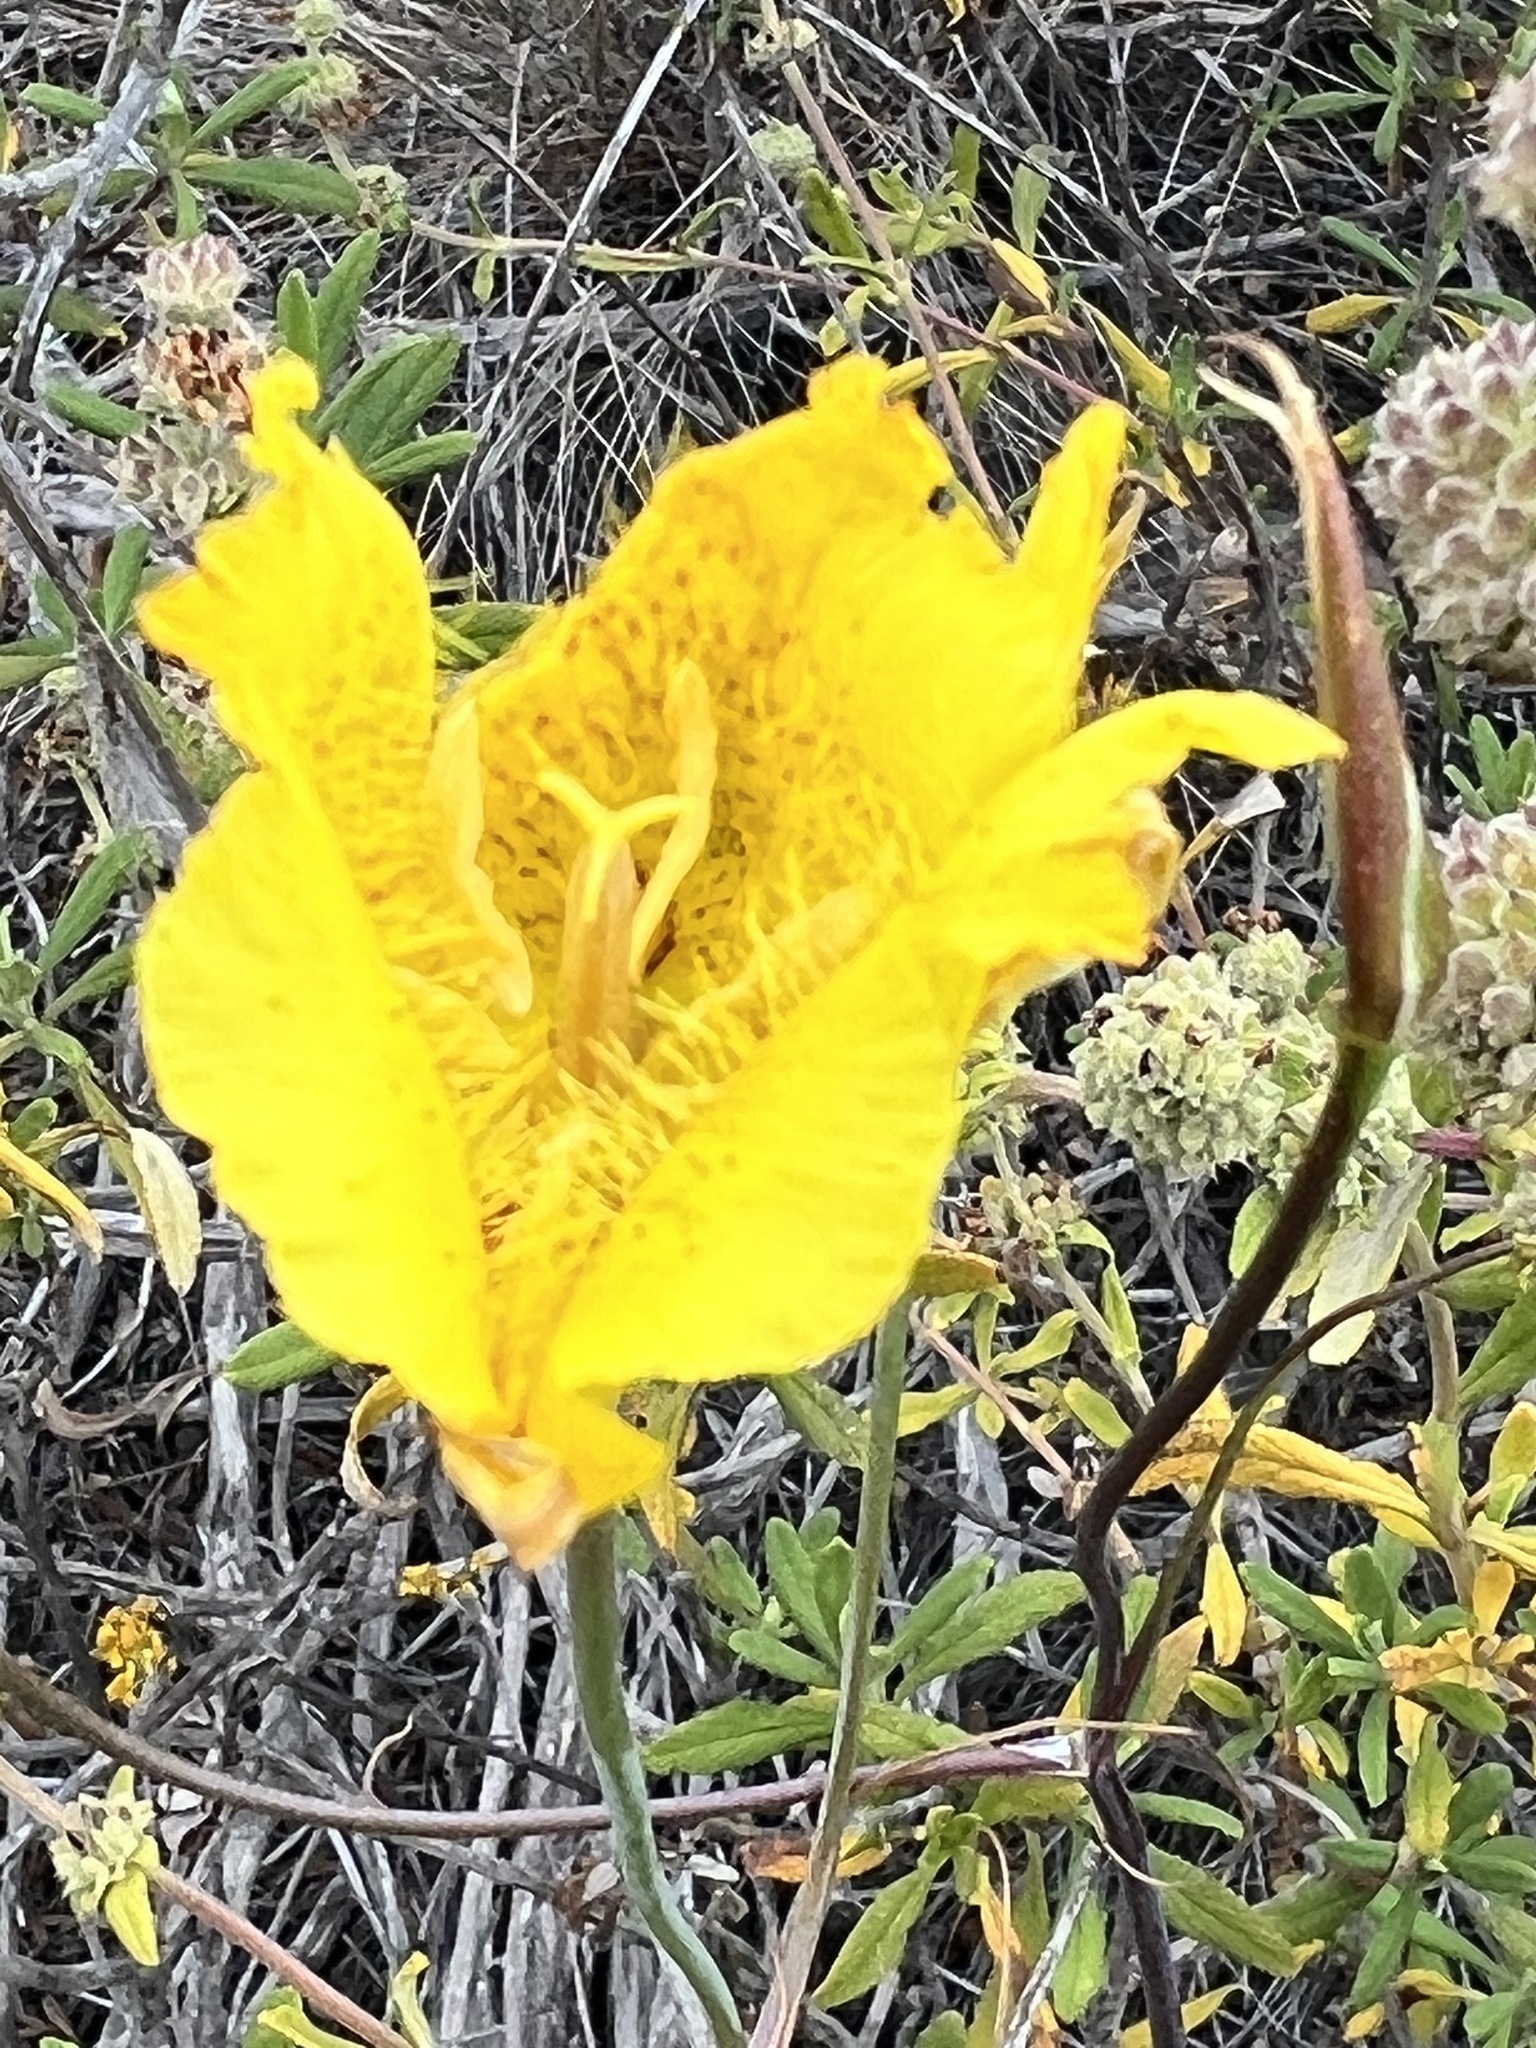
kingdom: Plantae
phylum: Tracheophyta
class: Liliopsida
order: Liliales
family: Liliaceae
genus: Calochortus
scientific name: Calochortus weedii
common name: Weed's mariposa-lily
